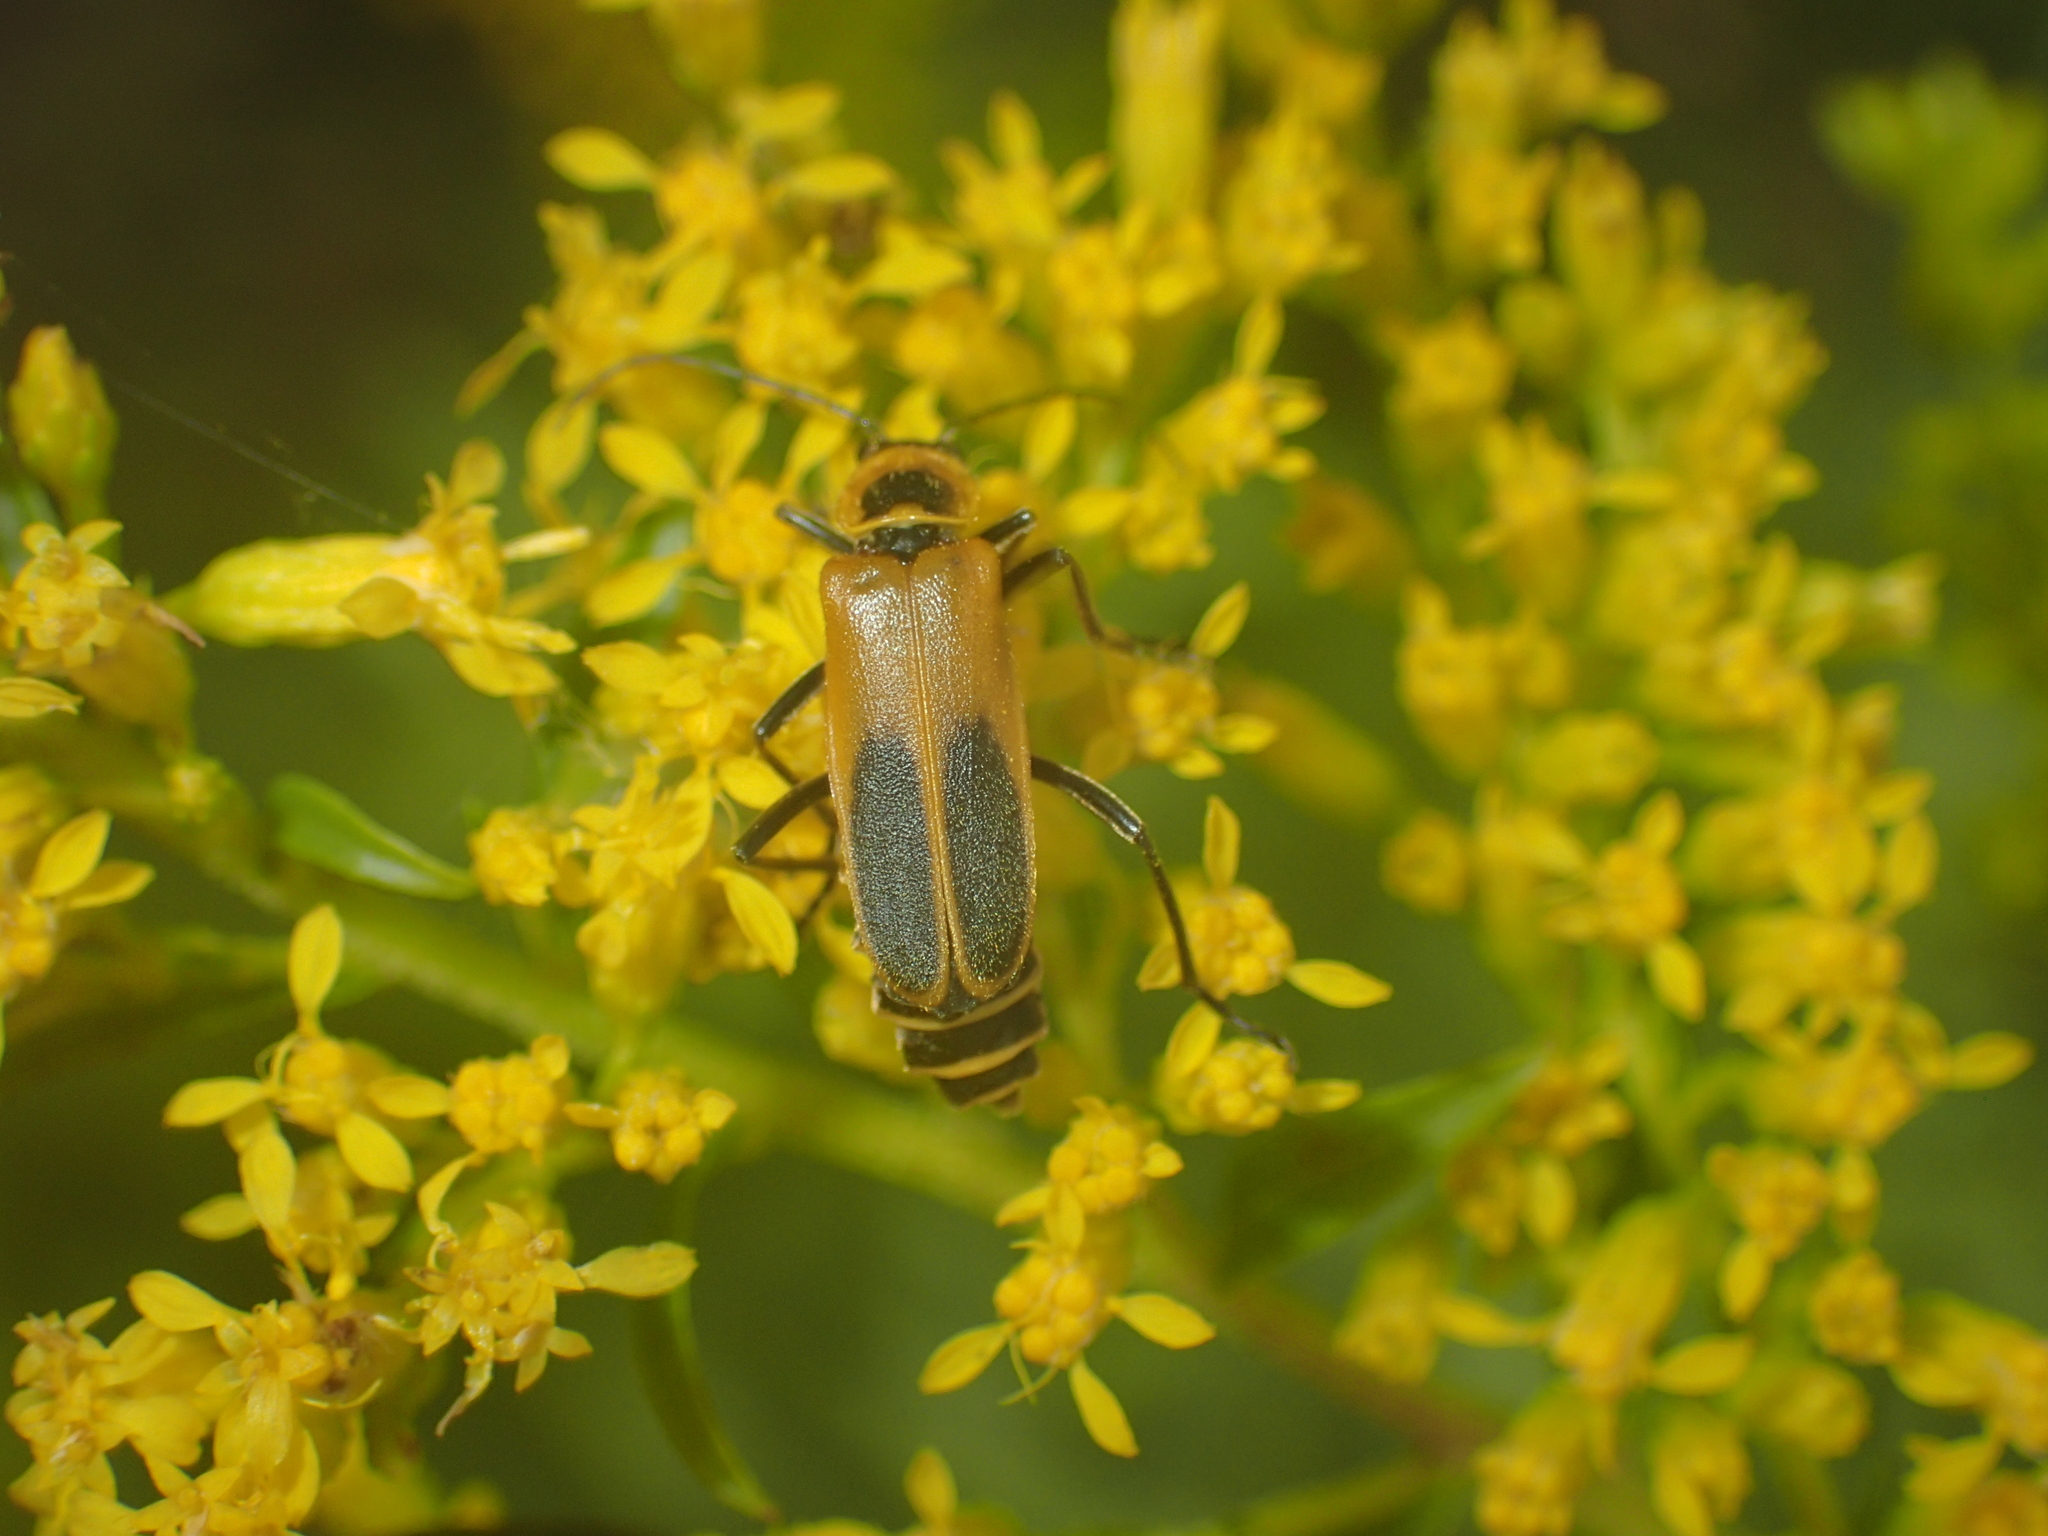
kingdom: Animalia
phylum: Arthropoda
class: Insecta
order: Coleoptera
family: Cantharidae
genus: Chauliognathus
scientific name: Chauliognathus pensylvanicus
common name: Goldenrod soldier beetle
